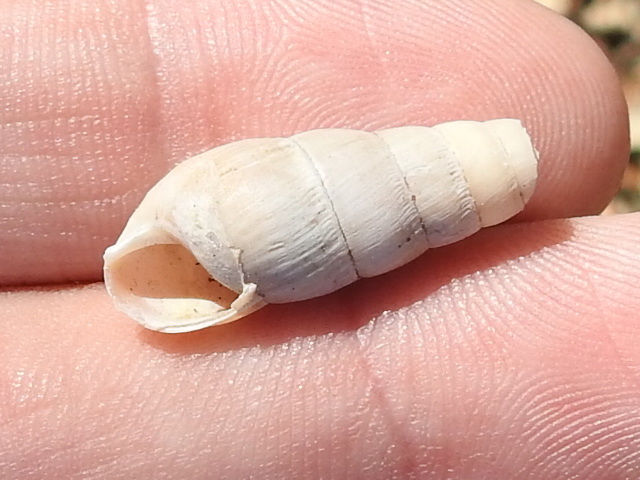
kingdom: Animalia
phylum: Mollusca
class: Gastropoda
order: Stylommatophora
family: Achatinidae
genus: Rumina
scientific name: Rumina decollata
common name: Decollate snail
